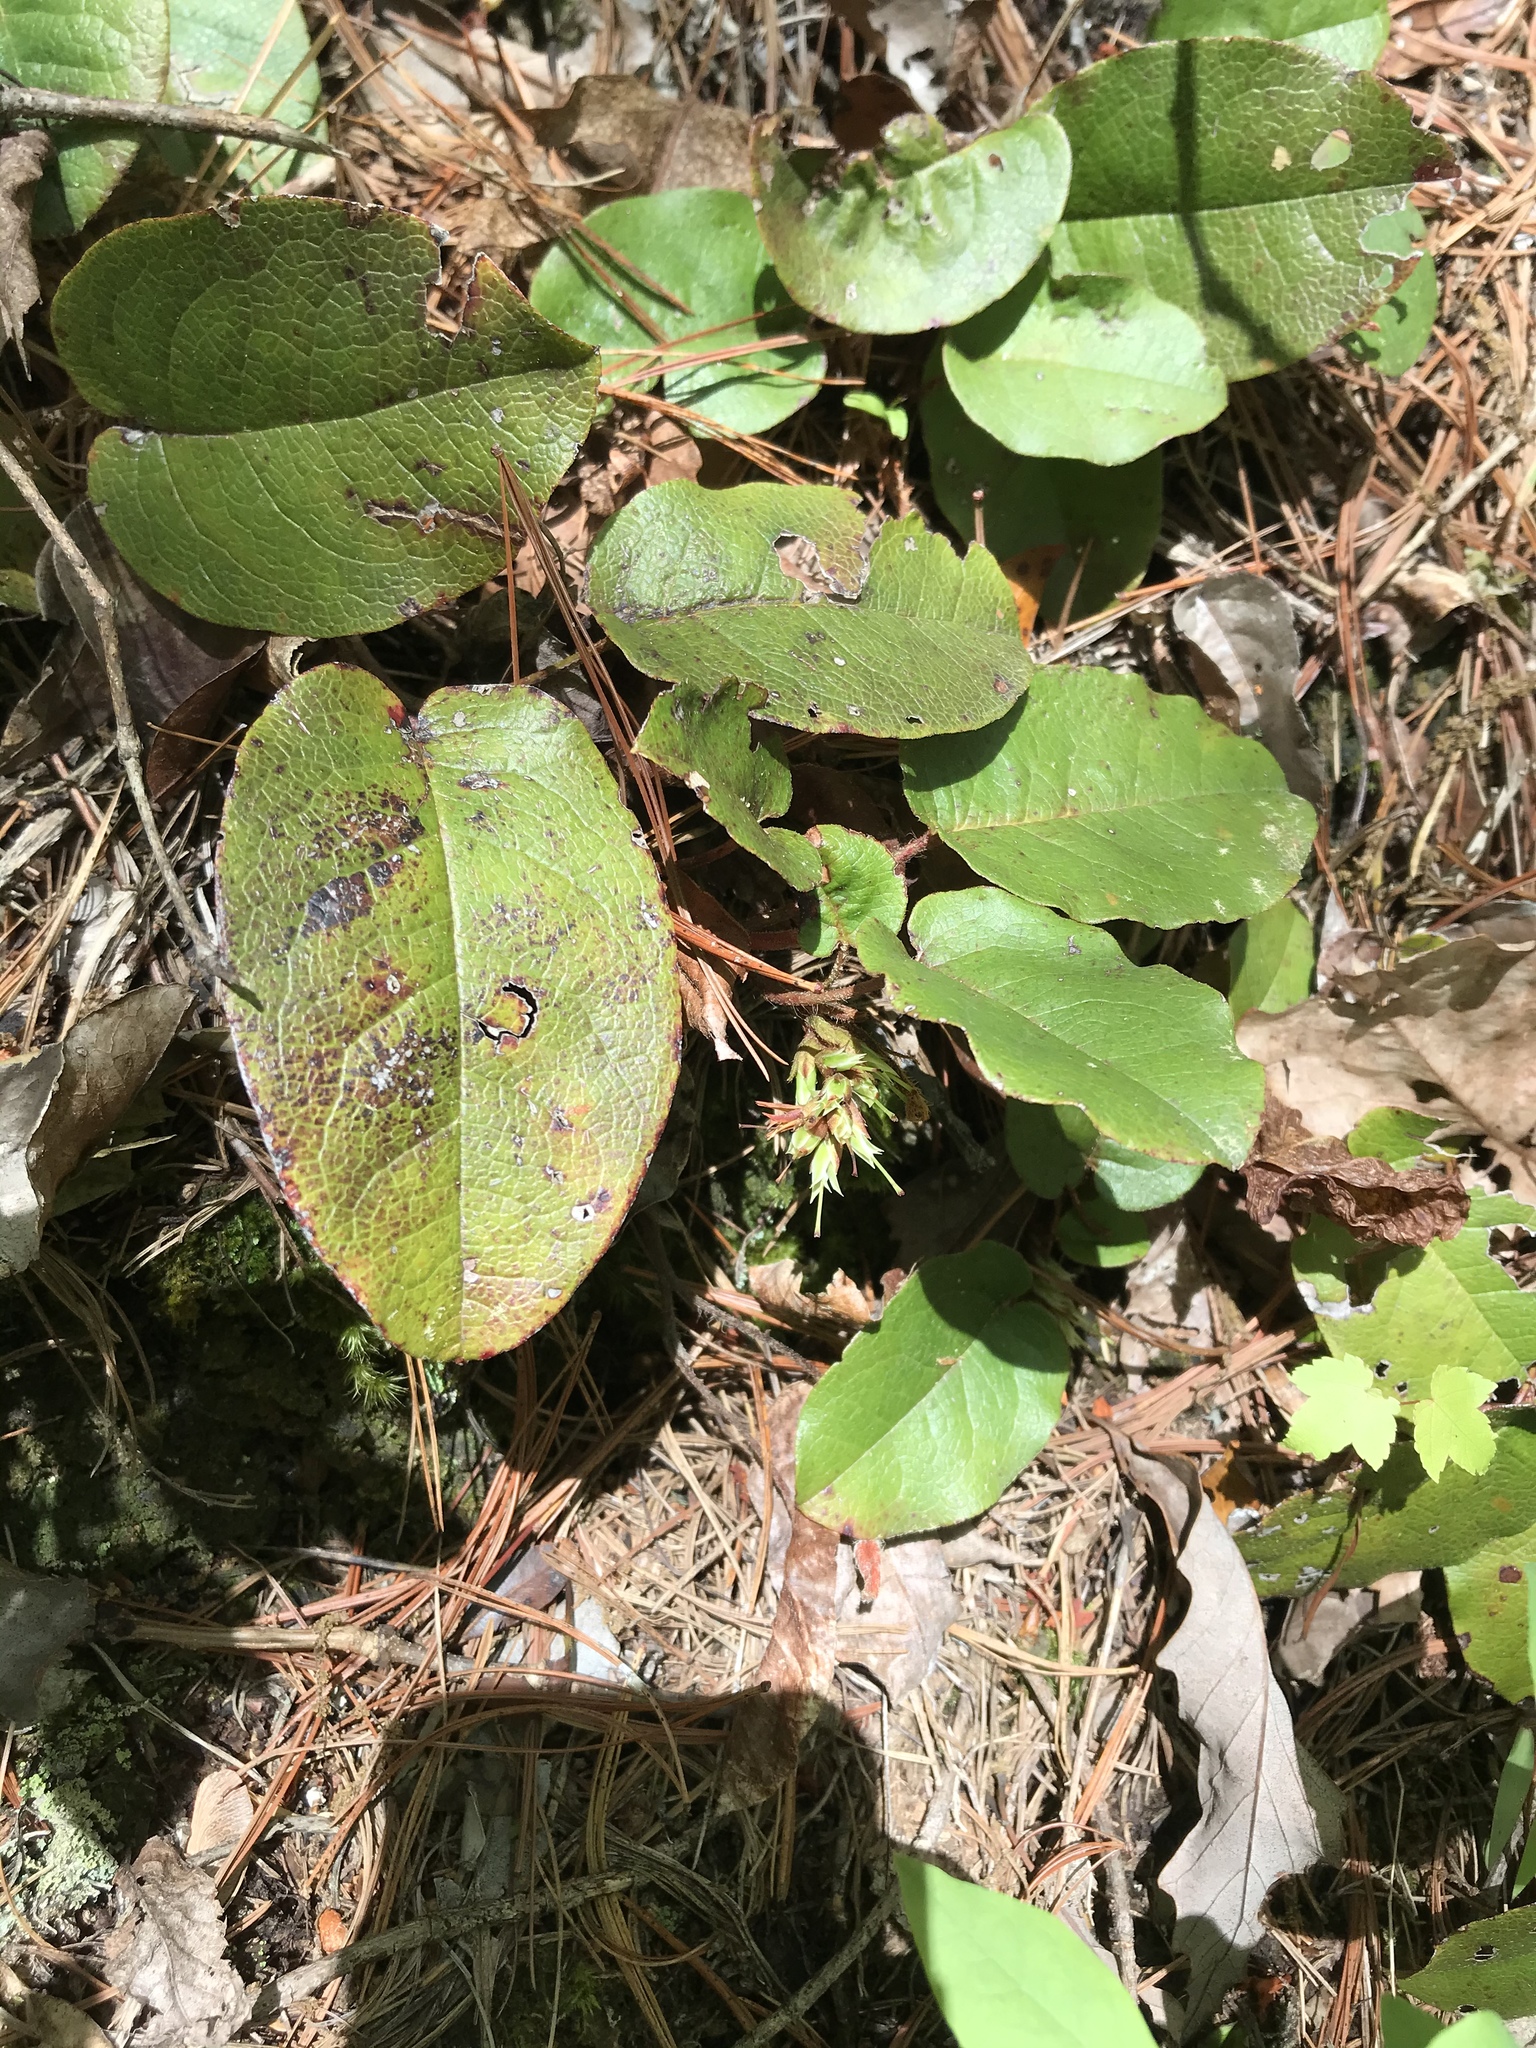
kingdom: Plantae
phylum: Tracheophyta
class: Magnoliopsida
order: Ericales
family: Ericaceae
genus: Epigaea
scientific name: Epigaea repens
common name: Gravelroot
